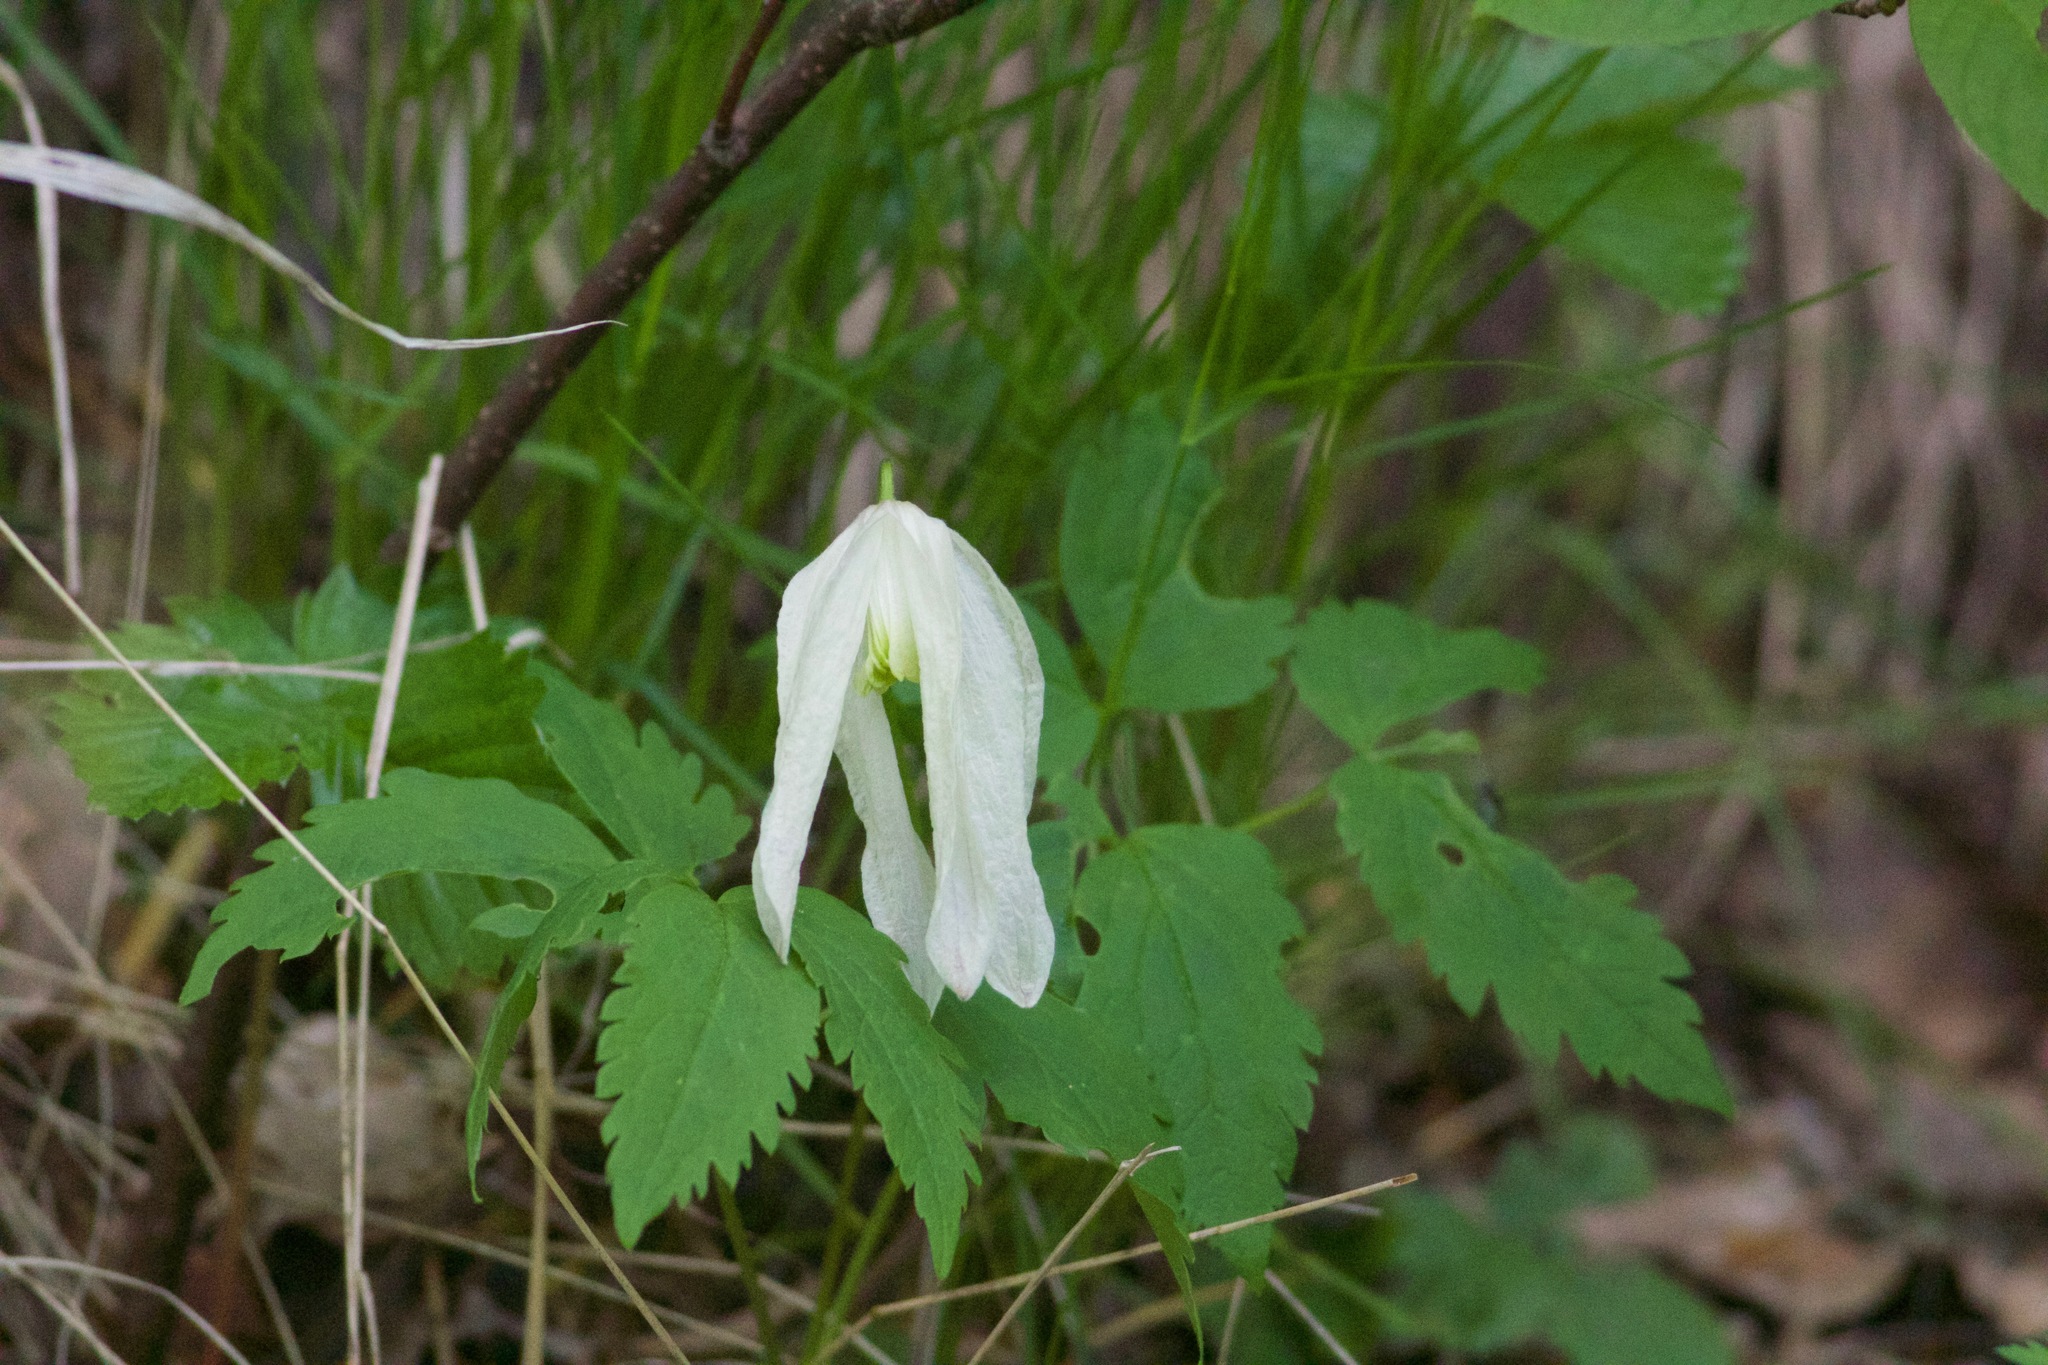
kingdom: Plantae
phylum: Tracheophyta
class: Magnoliopsida
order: Ranunculales
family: Ranunculaceae
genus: Clematis
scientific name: Clematis sibirica
